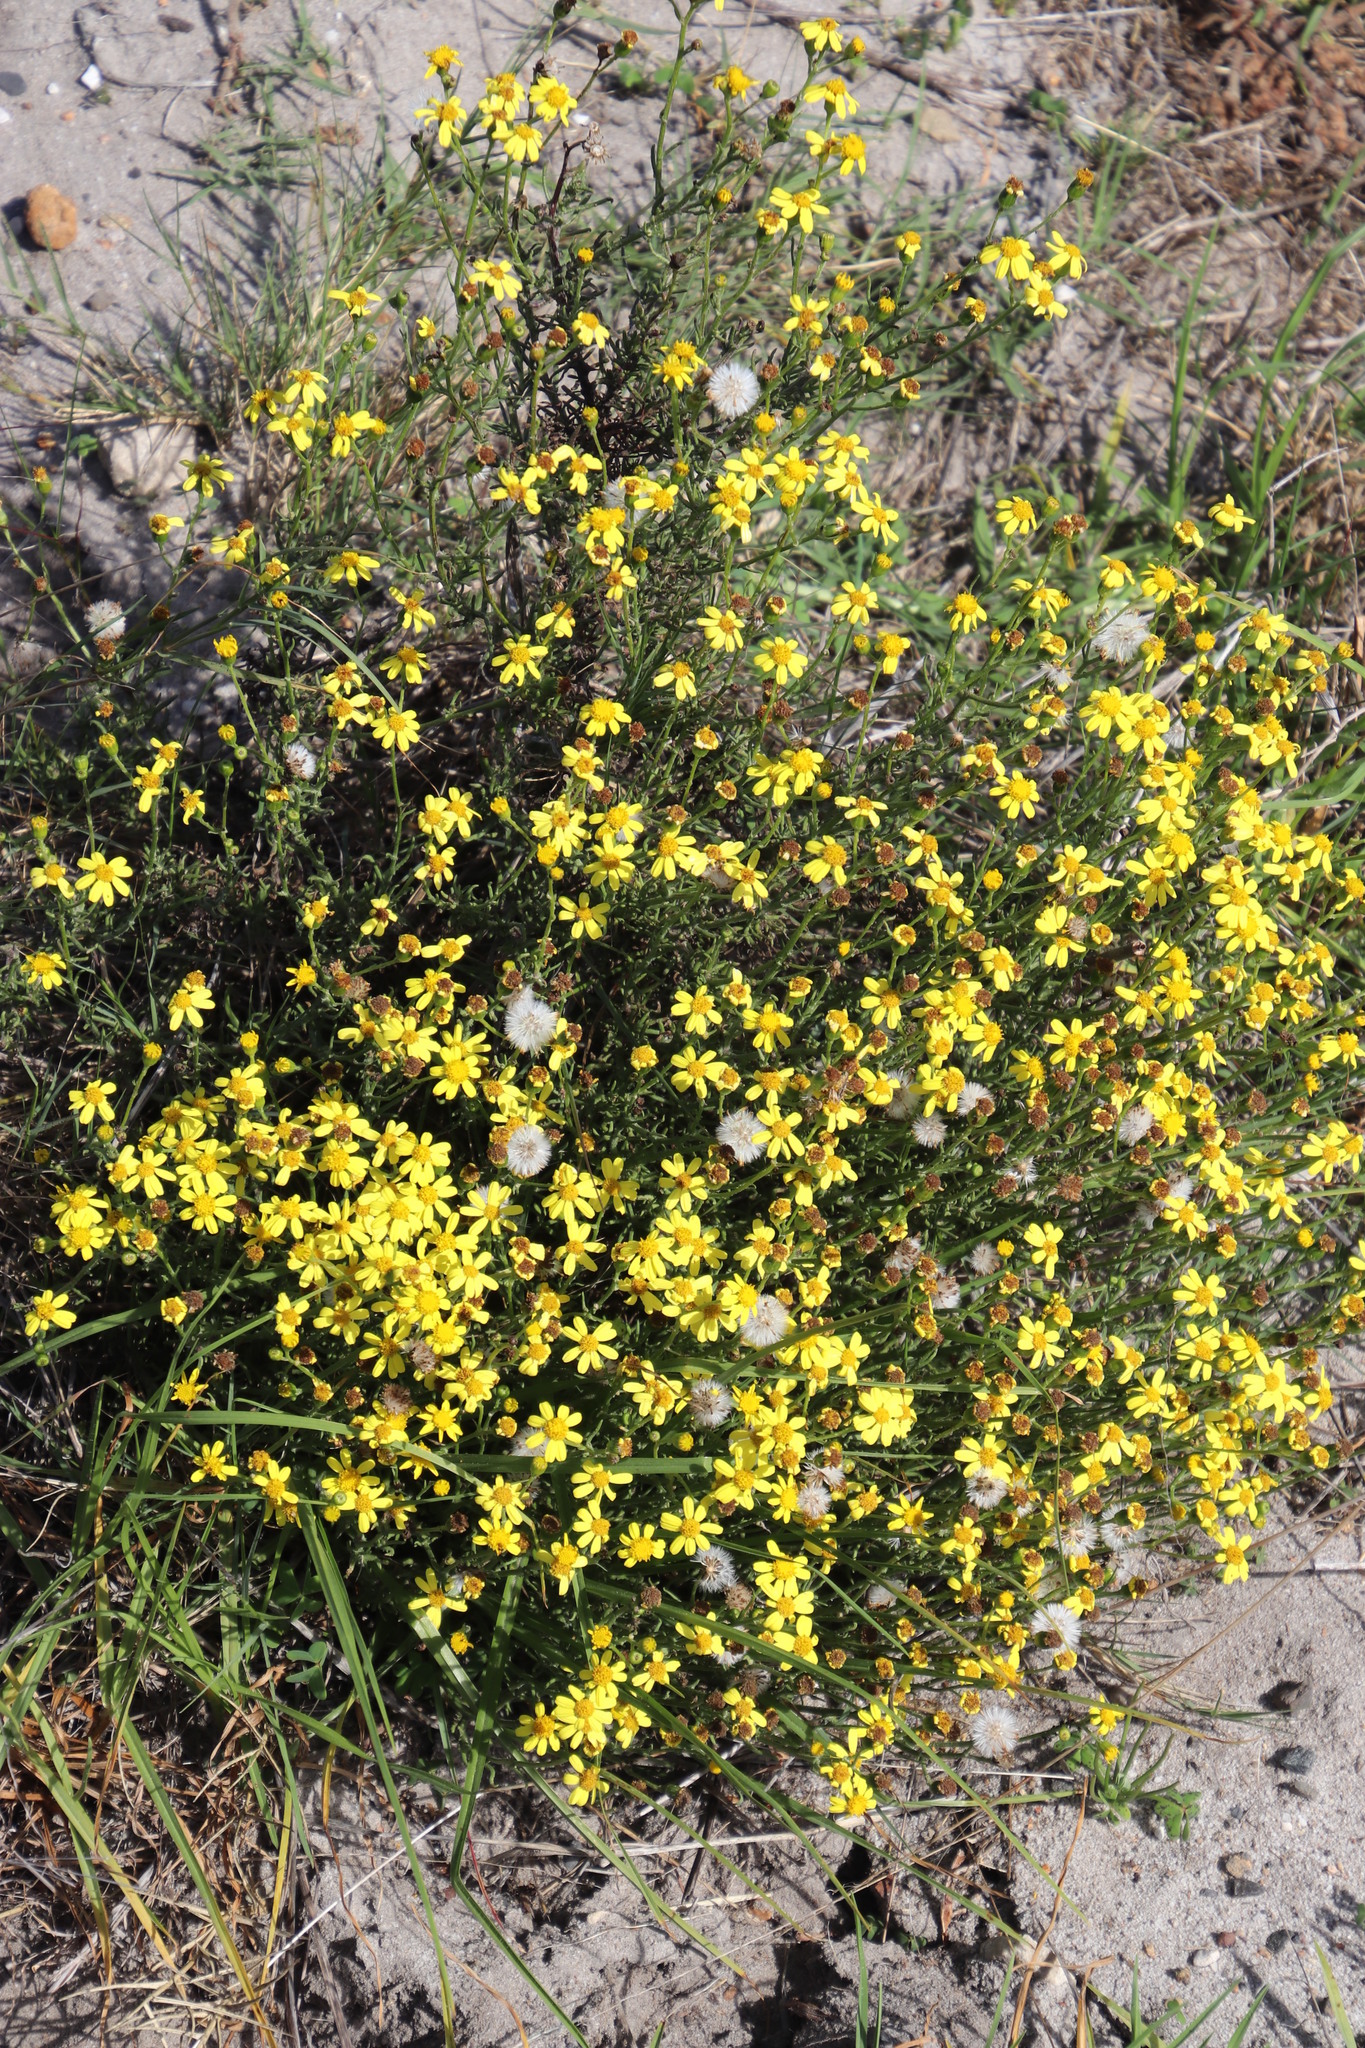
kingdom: Plantae
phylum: Tracheophyta
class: Magnoliopsida
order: Asterales
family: Asteraceae
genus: Senecio
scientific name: Senecio burchellii
